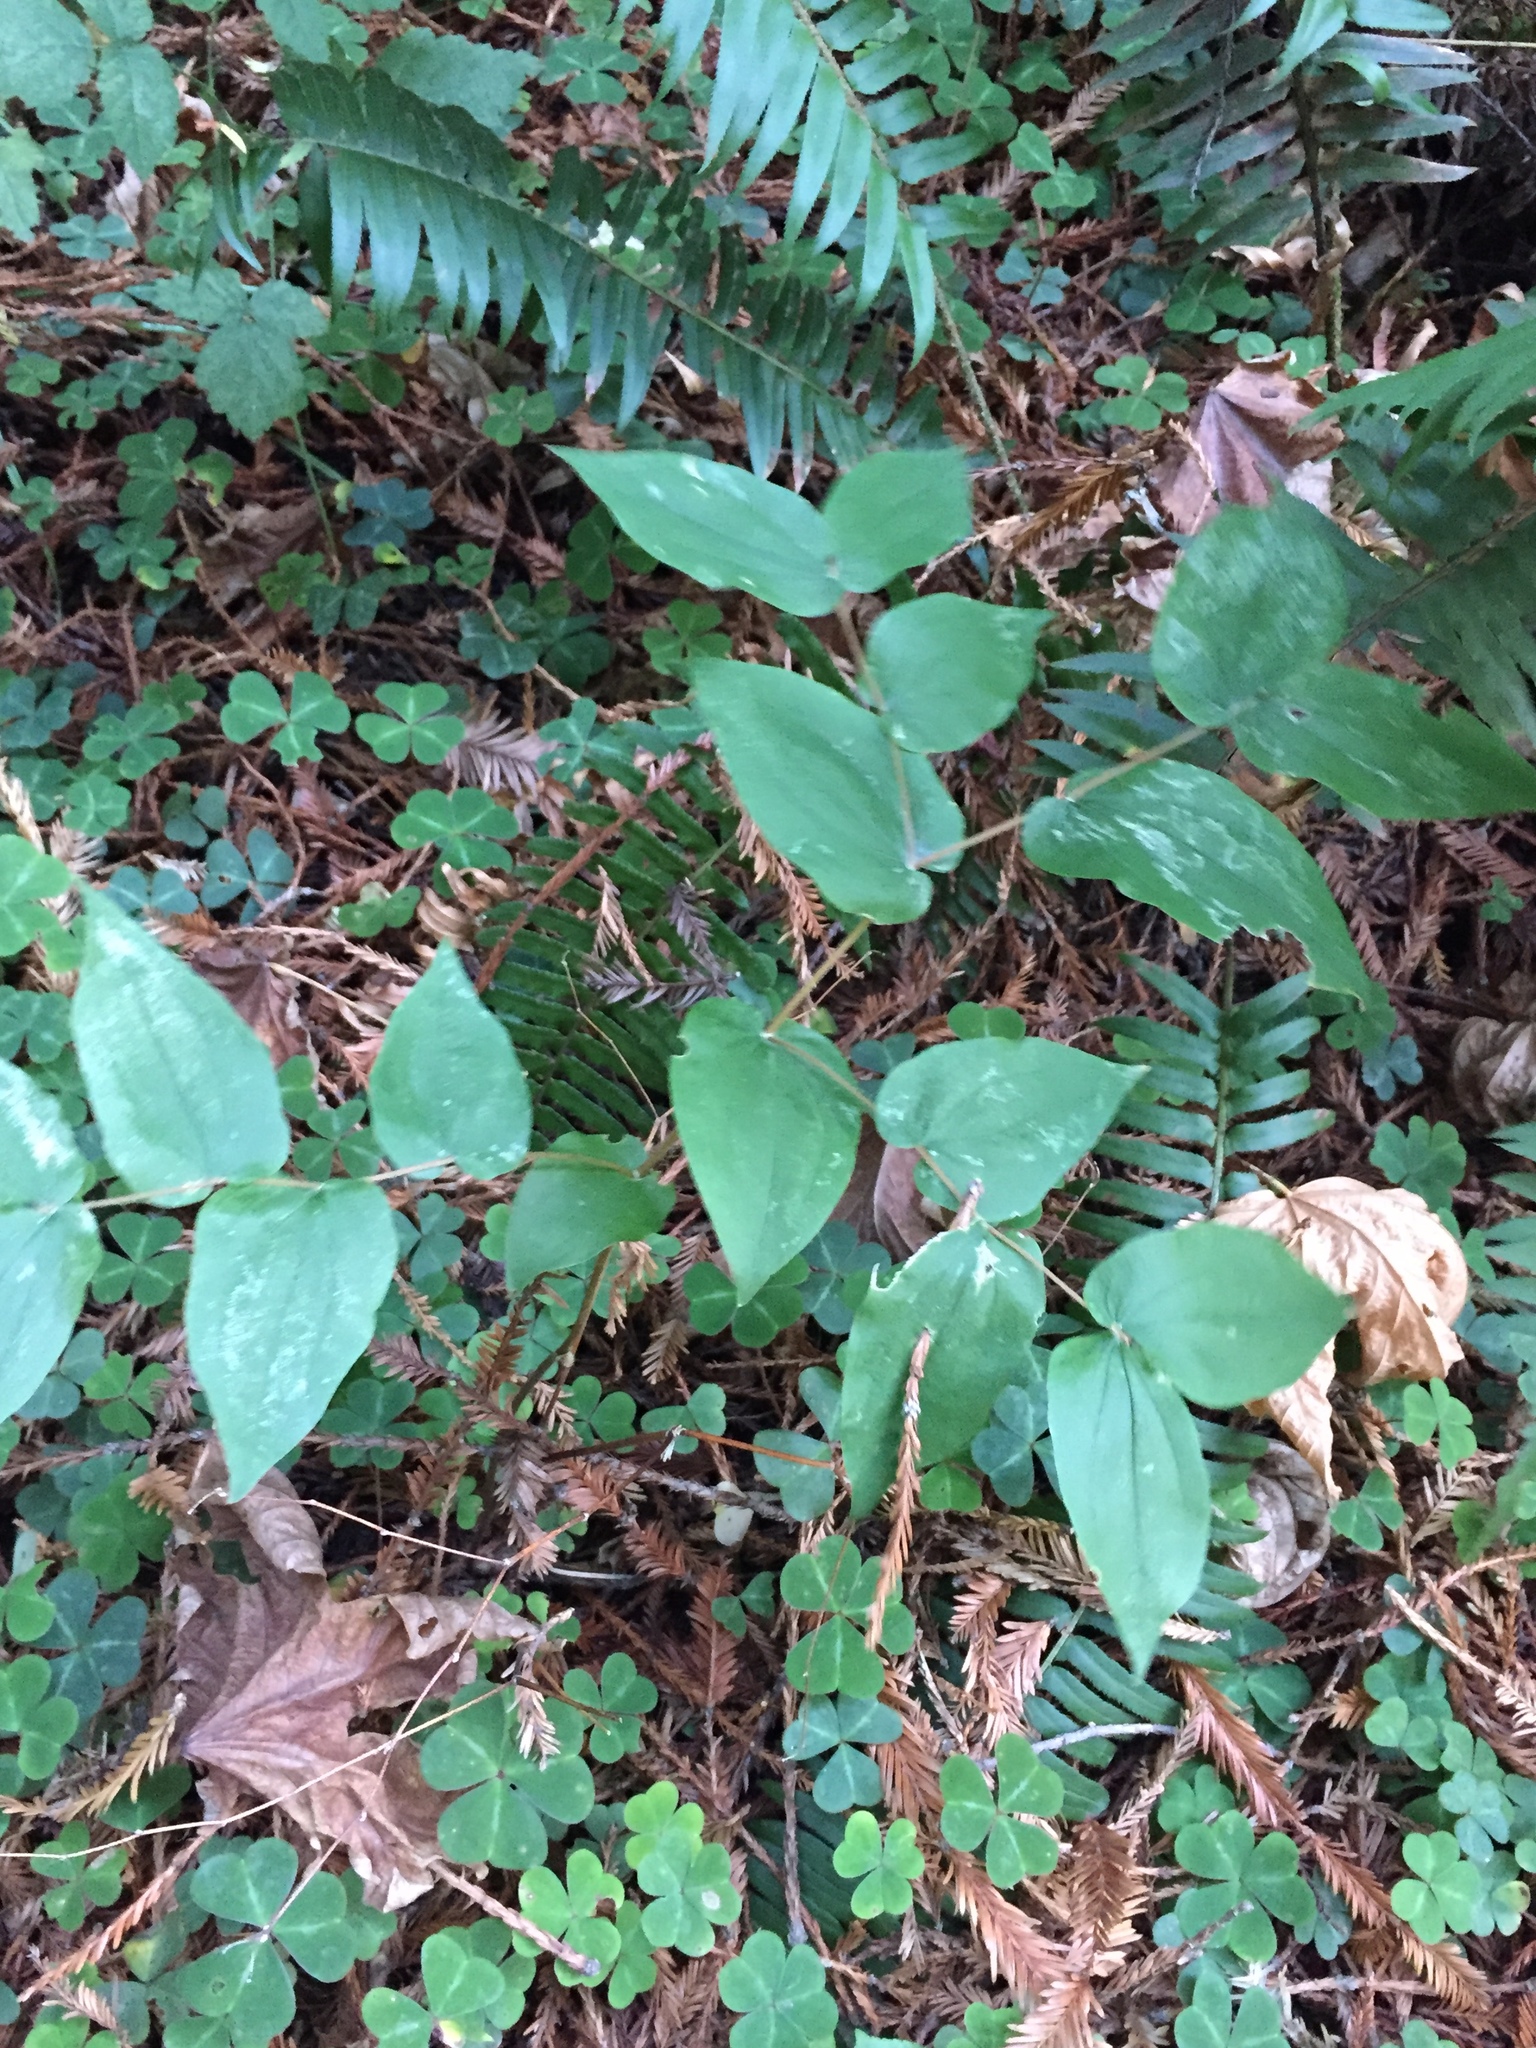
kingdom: Plantae
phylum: Tracheophyta
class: Liliopsida
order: Liliales
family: Liliaceae
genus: Prosartes
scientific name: Prosartes hookeri
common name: Fairy-bells
